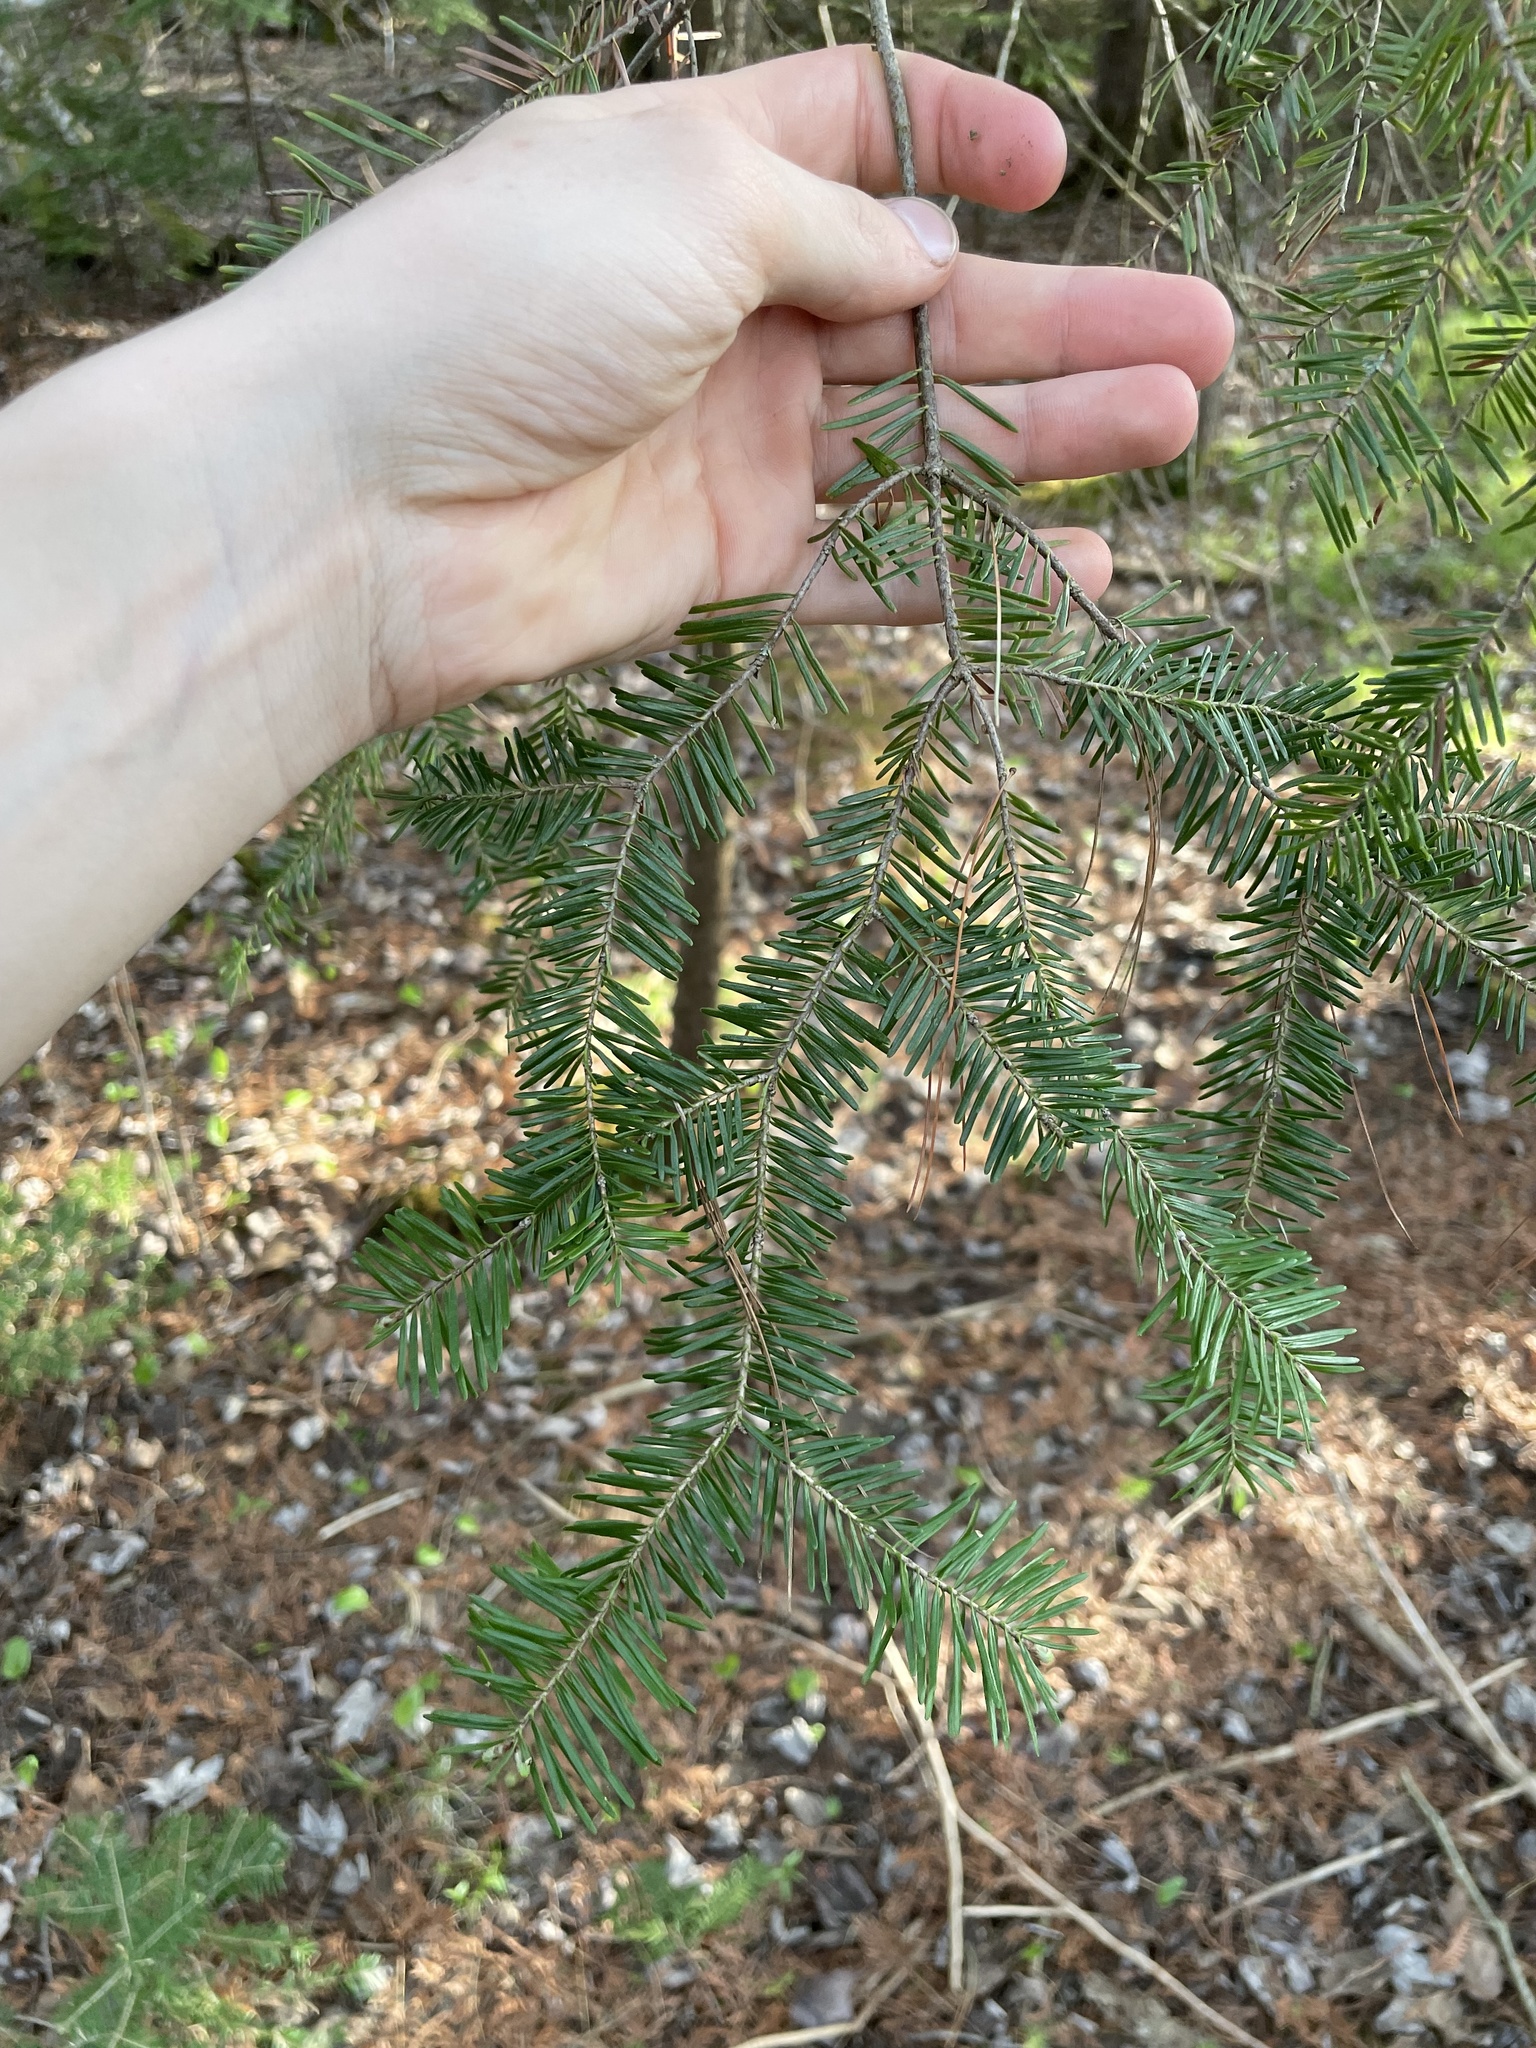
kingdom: Plantae
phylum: Tracheophyta
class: Pinopsida
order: Pinales
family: Pinaceae
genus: Abies
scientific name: Abies balsamea
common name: Balsam fir
